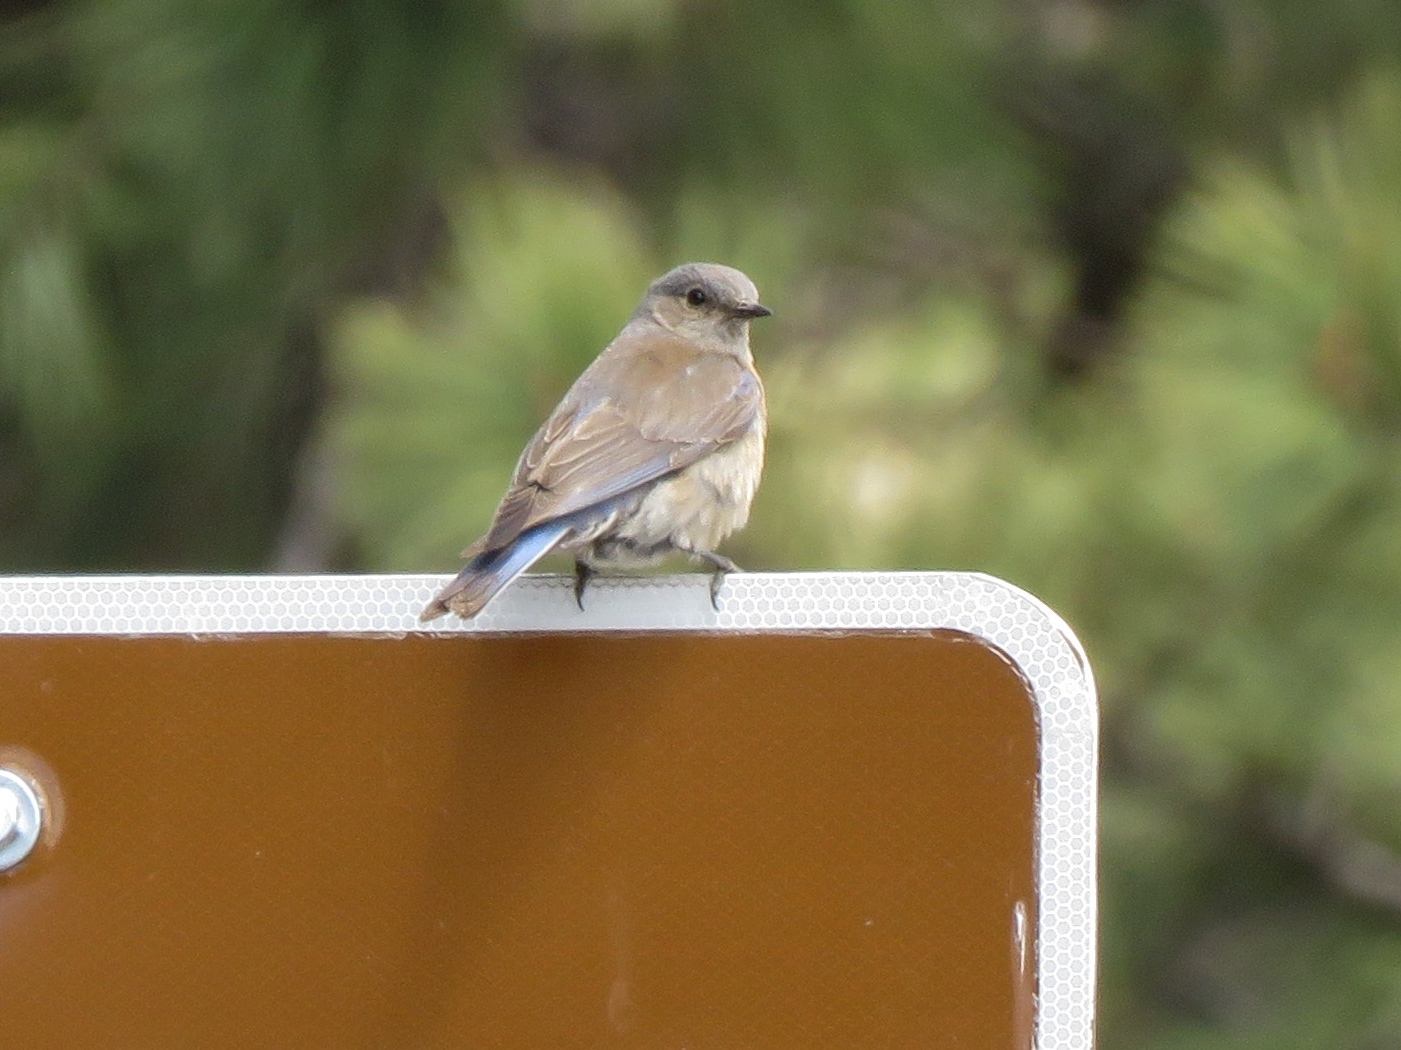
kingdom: Animalia
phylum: Chordata
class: Aves
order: Passeriformes
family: Turdidae
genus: Sialia
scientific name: Sialia mexicana
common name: Western bluebird
